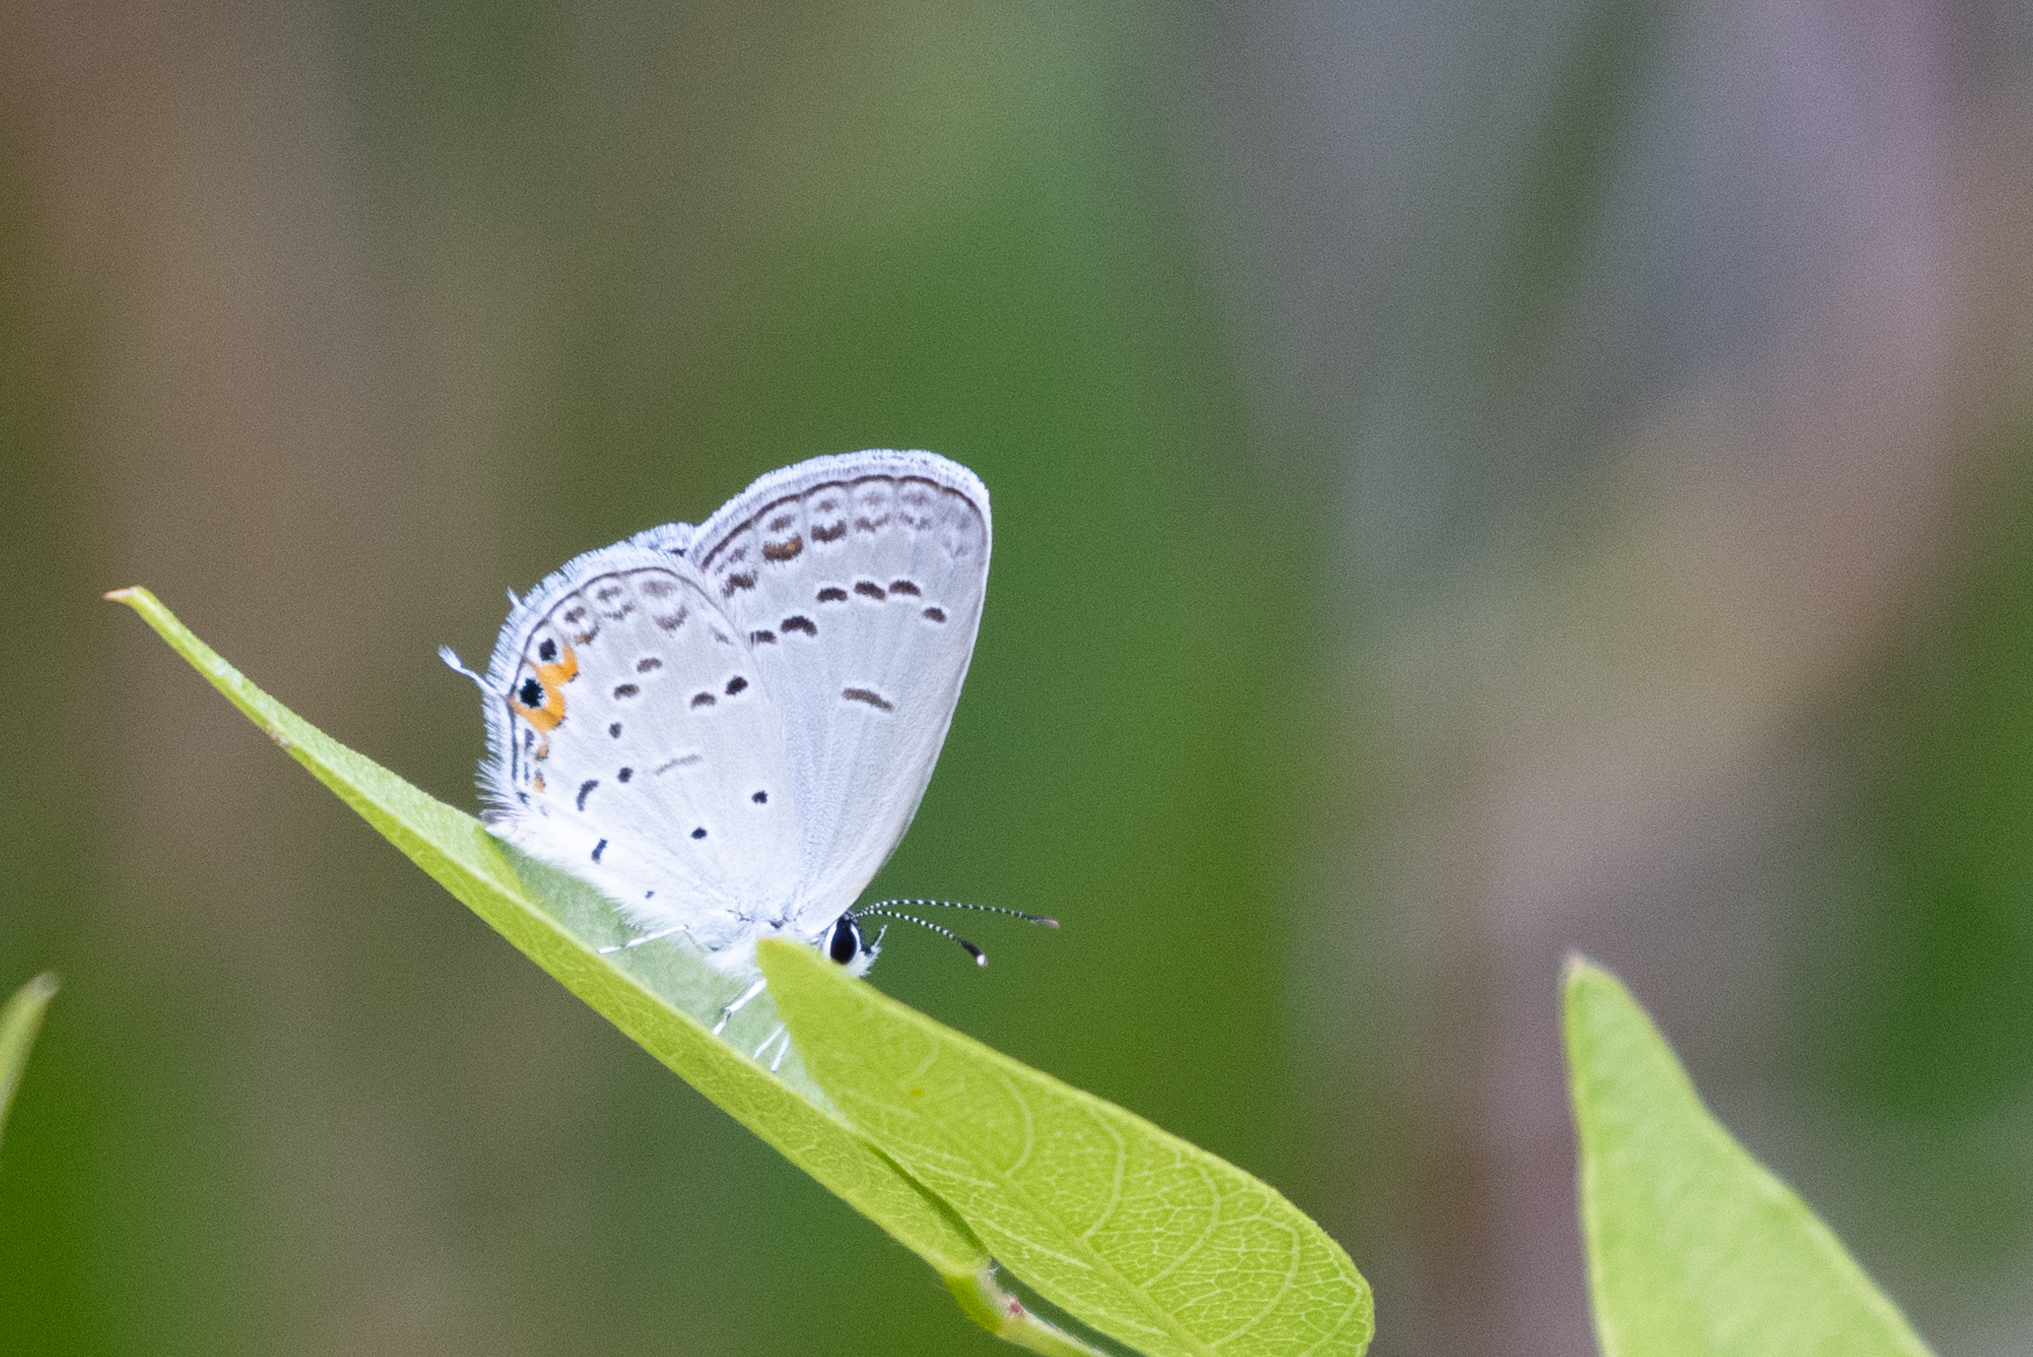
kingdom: Animalia
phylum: Arthropoda
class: Insecta
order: Lepidoptera
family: Lycaenidae
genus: Elkalyce
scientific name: Elkalyce comyntas
